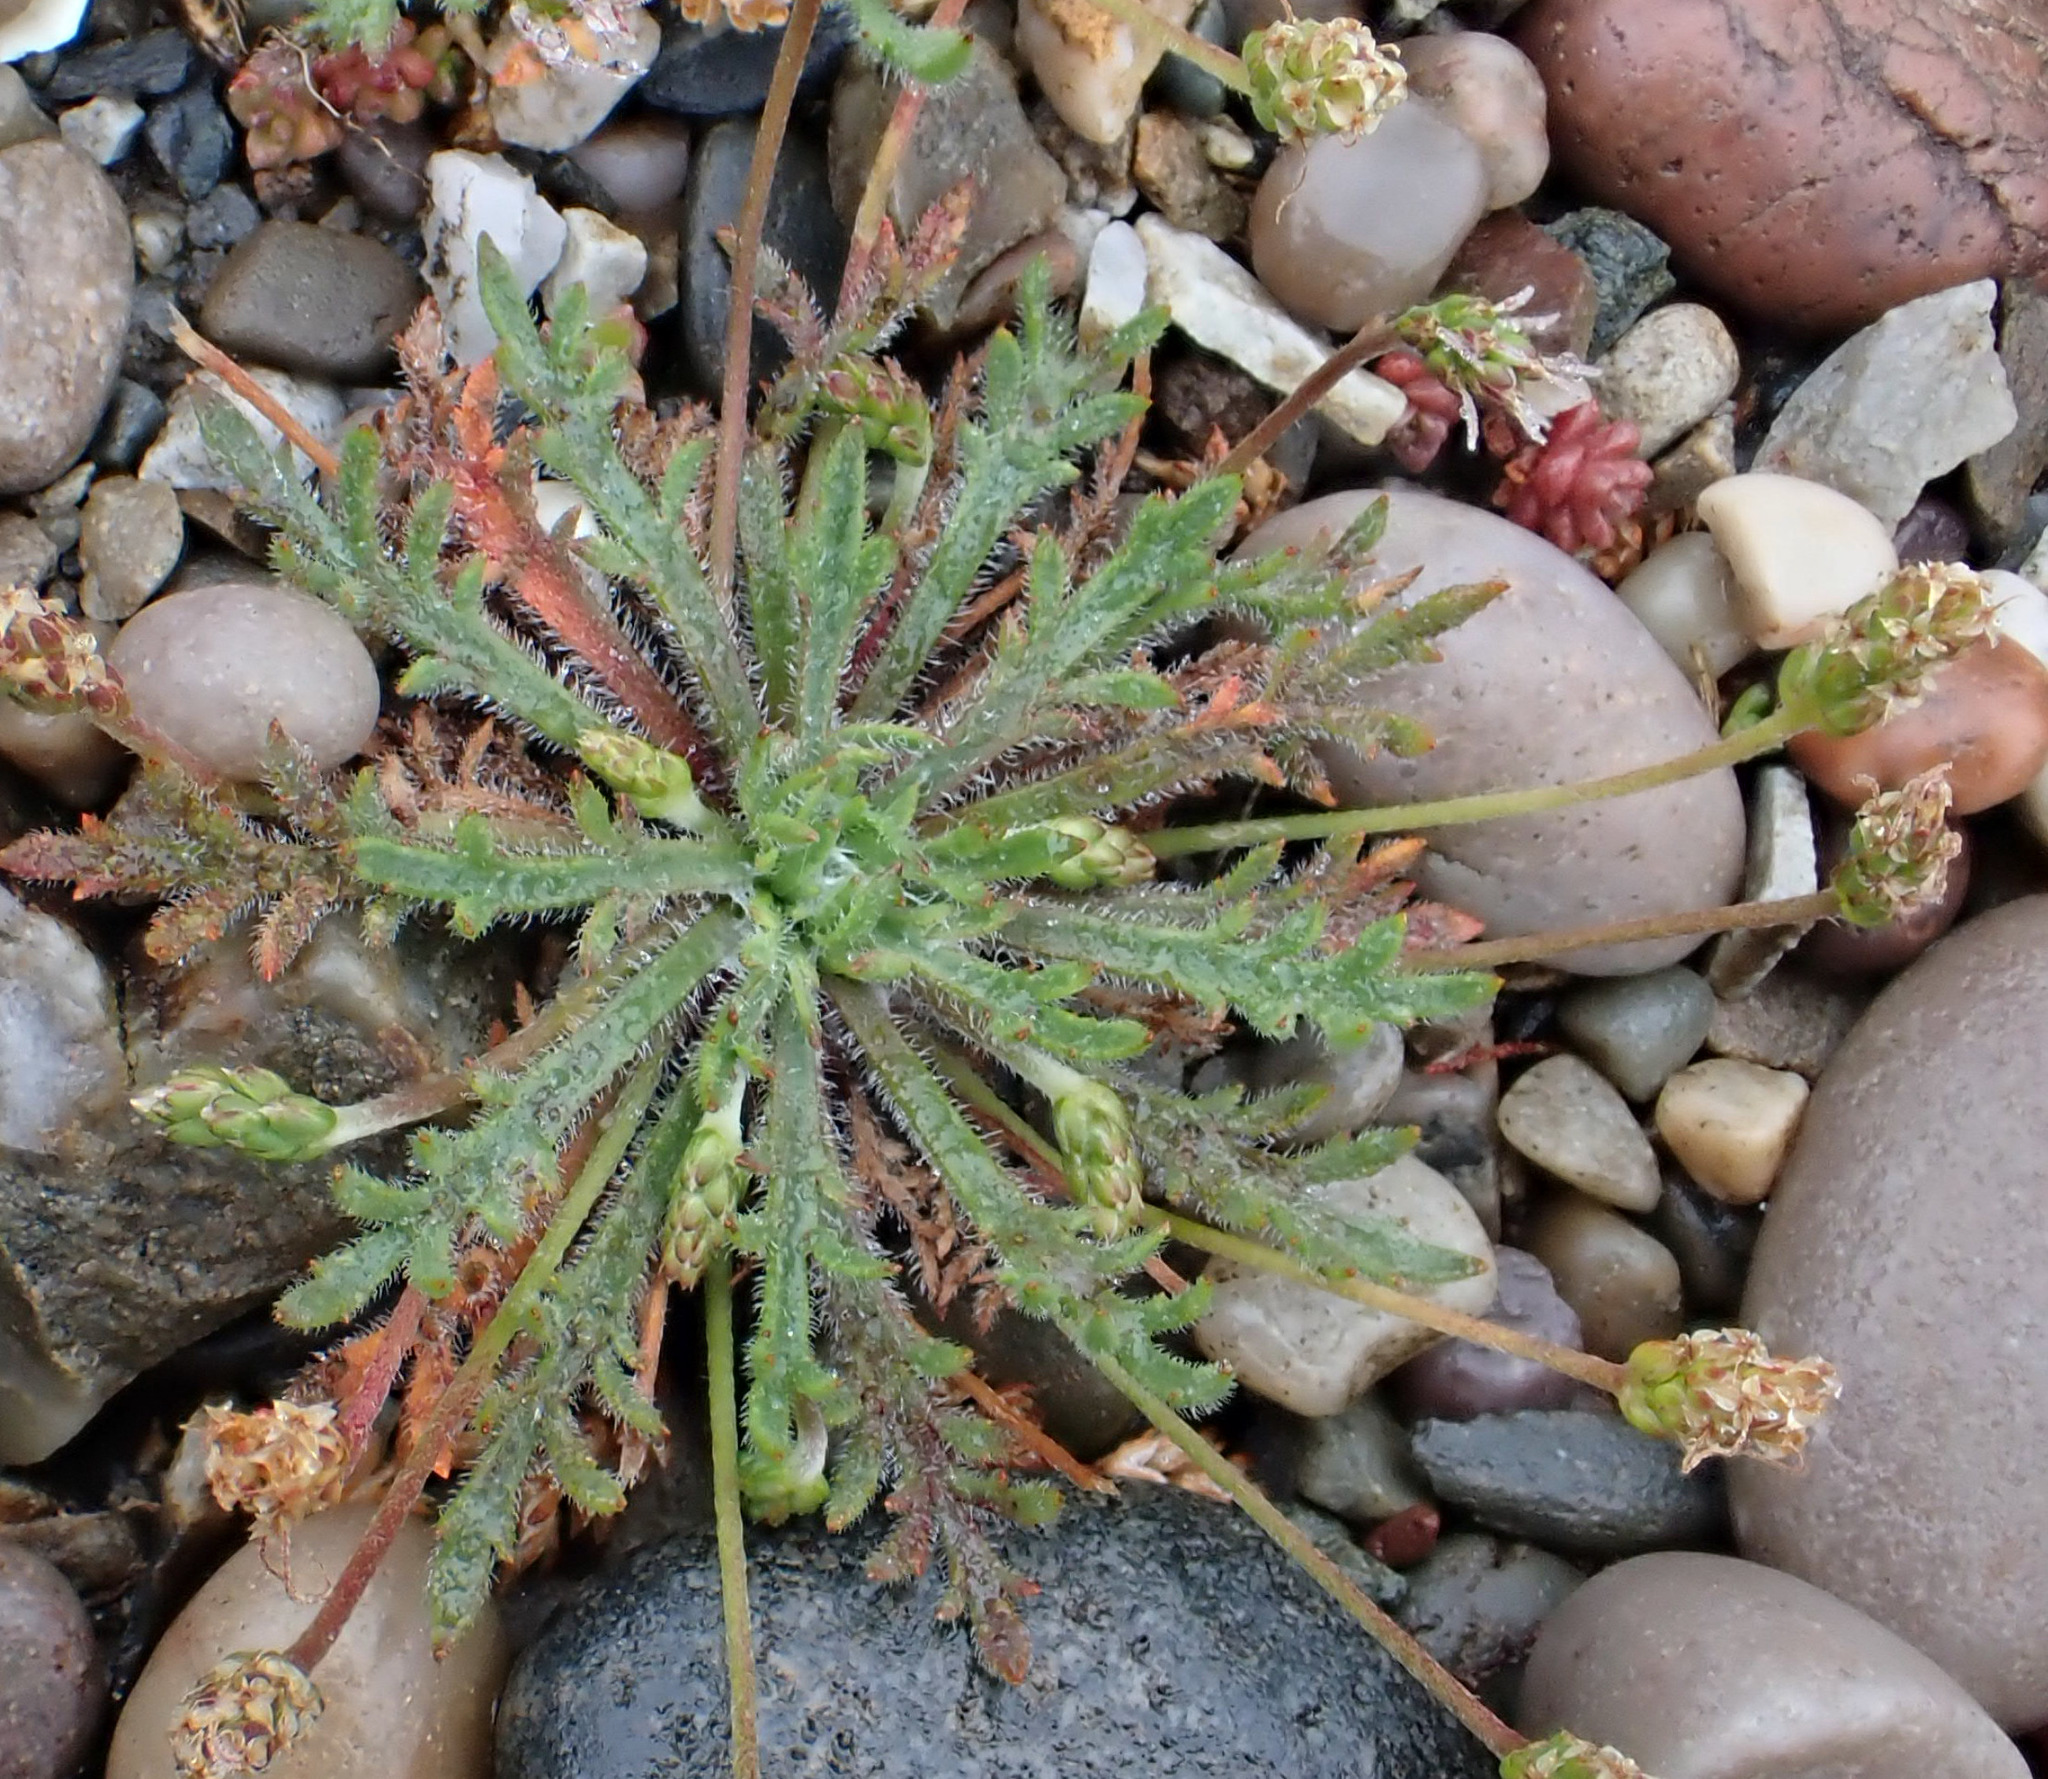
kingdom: Plantae
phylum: Tracheophyta
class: Magnoliopsida
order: Lamiales
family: Plantaginaceae
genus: Plantago
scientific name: Plantago coronopus
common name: Buck's-horn plantain
